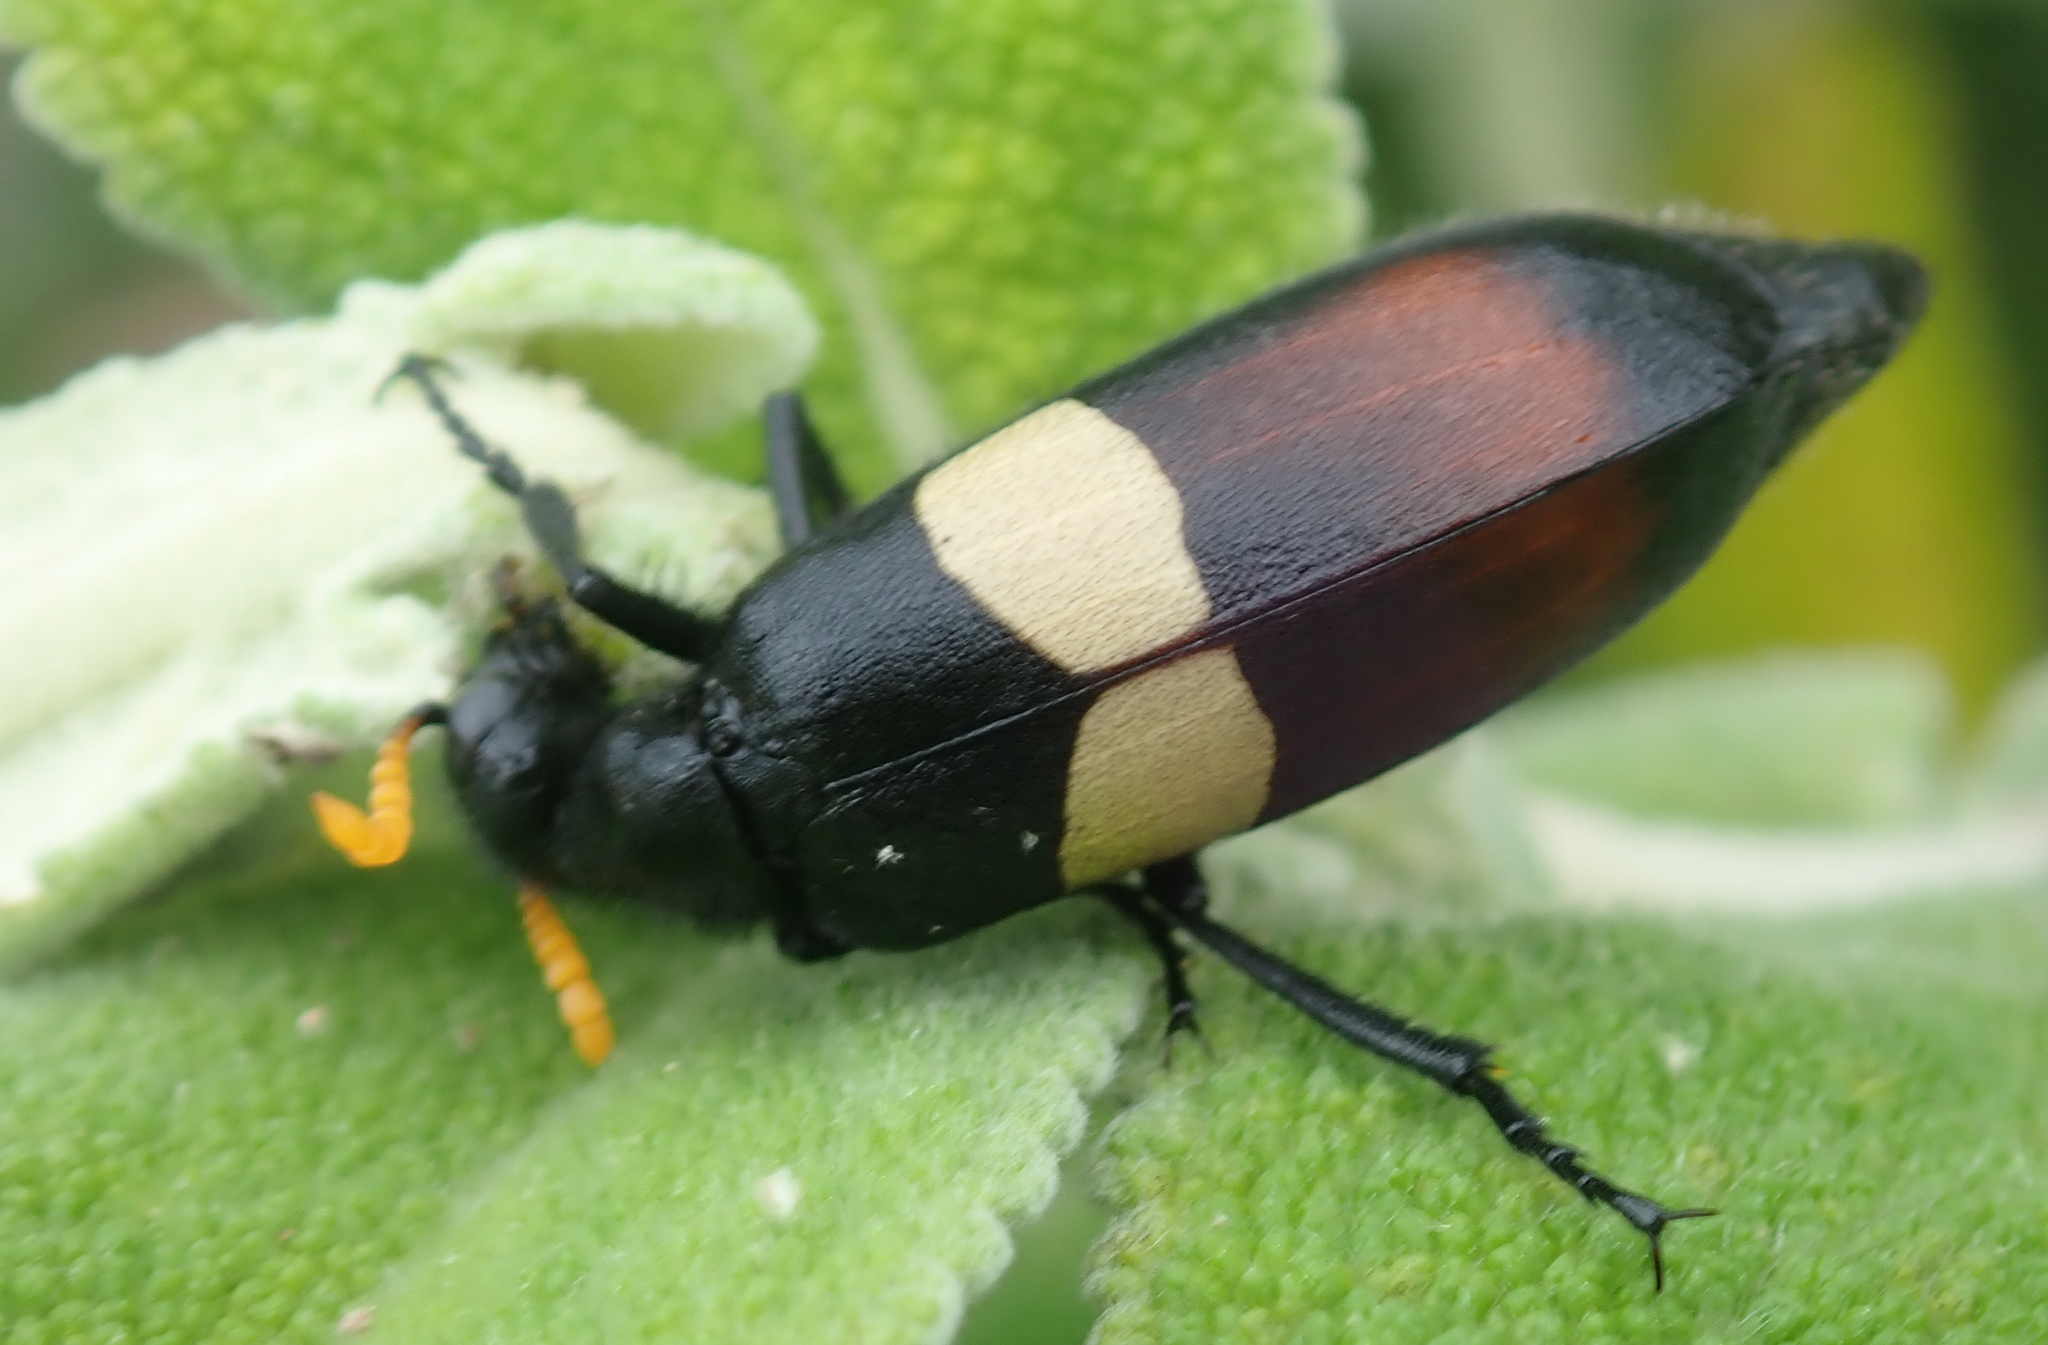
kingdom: Animalia
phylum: Arthropoda
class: Insecta
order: Coleoptera
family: Meloidae
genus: Hycleus
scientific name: Hycleus
